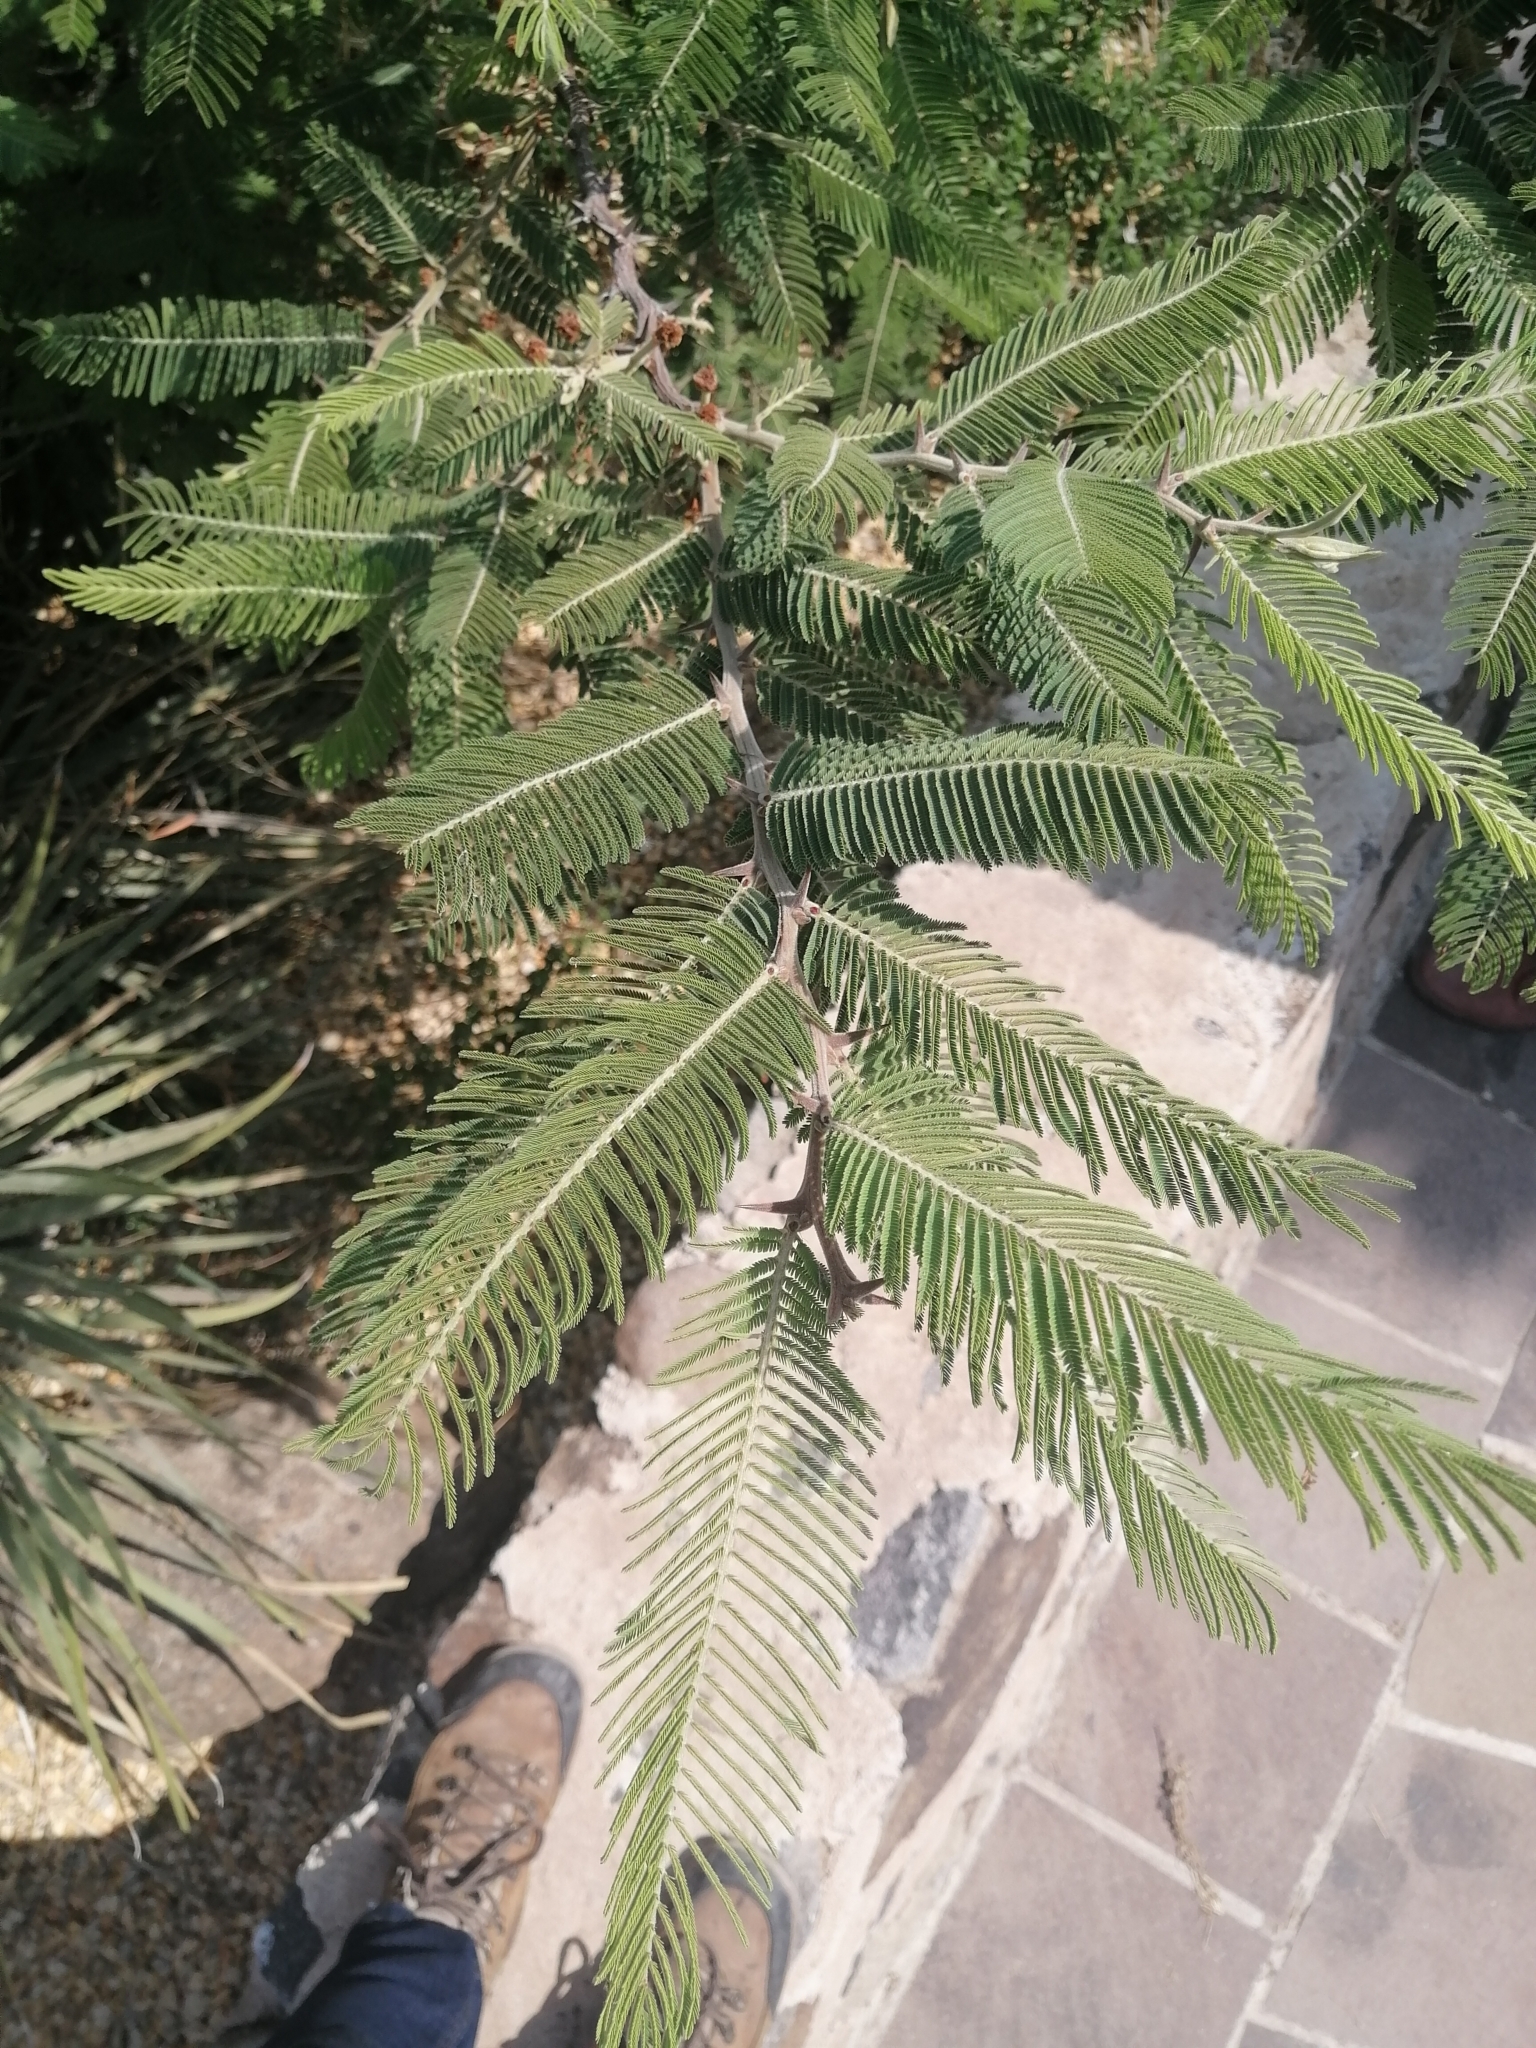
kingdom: Plantae
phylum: Tracheophyta
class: Magnoliopsida
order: Fabales
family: Fabaceae
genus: Vachellia
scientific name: Vachellia pennatula
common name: Fern-leaf acacia
